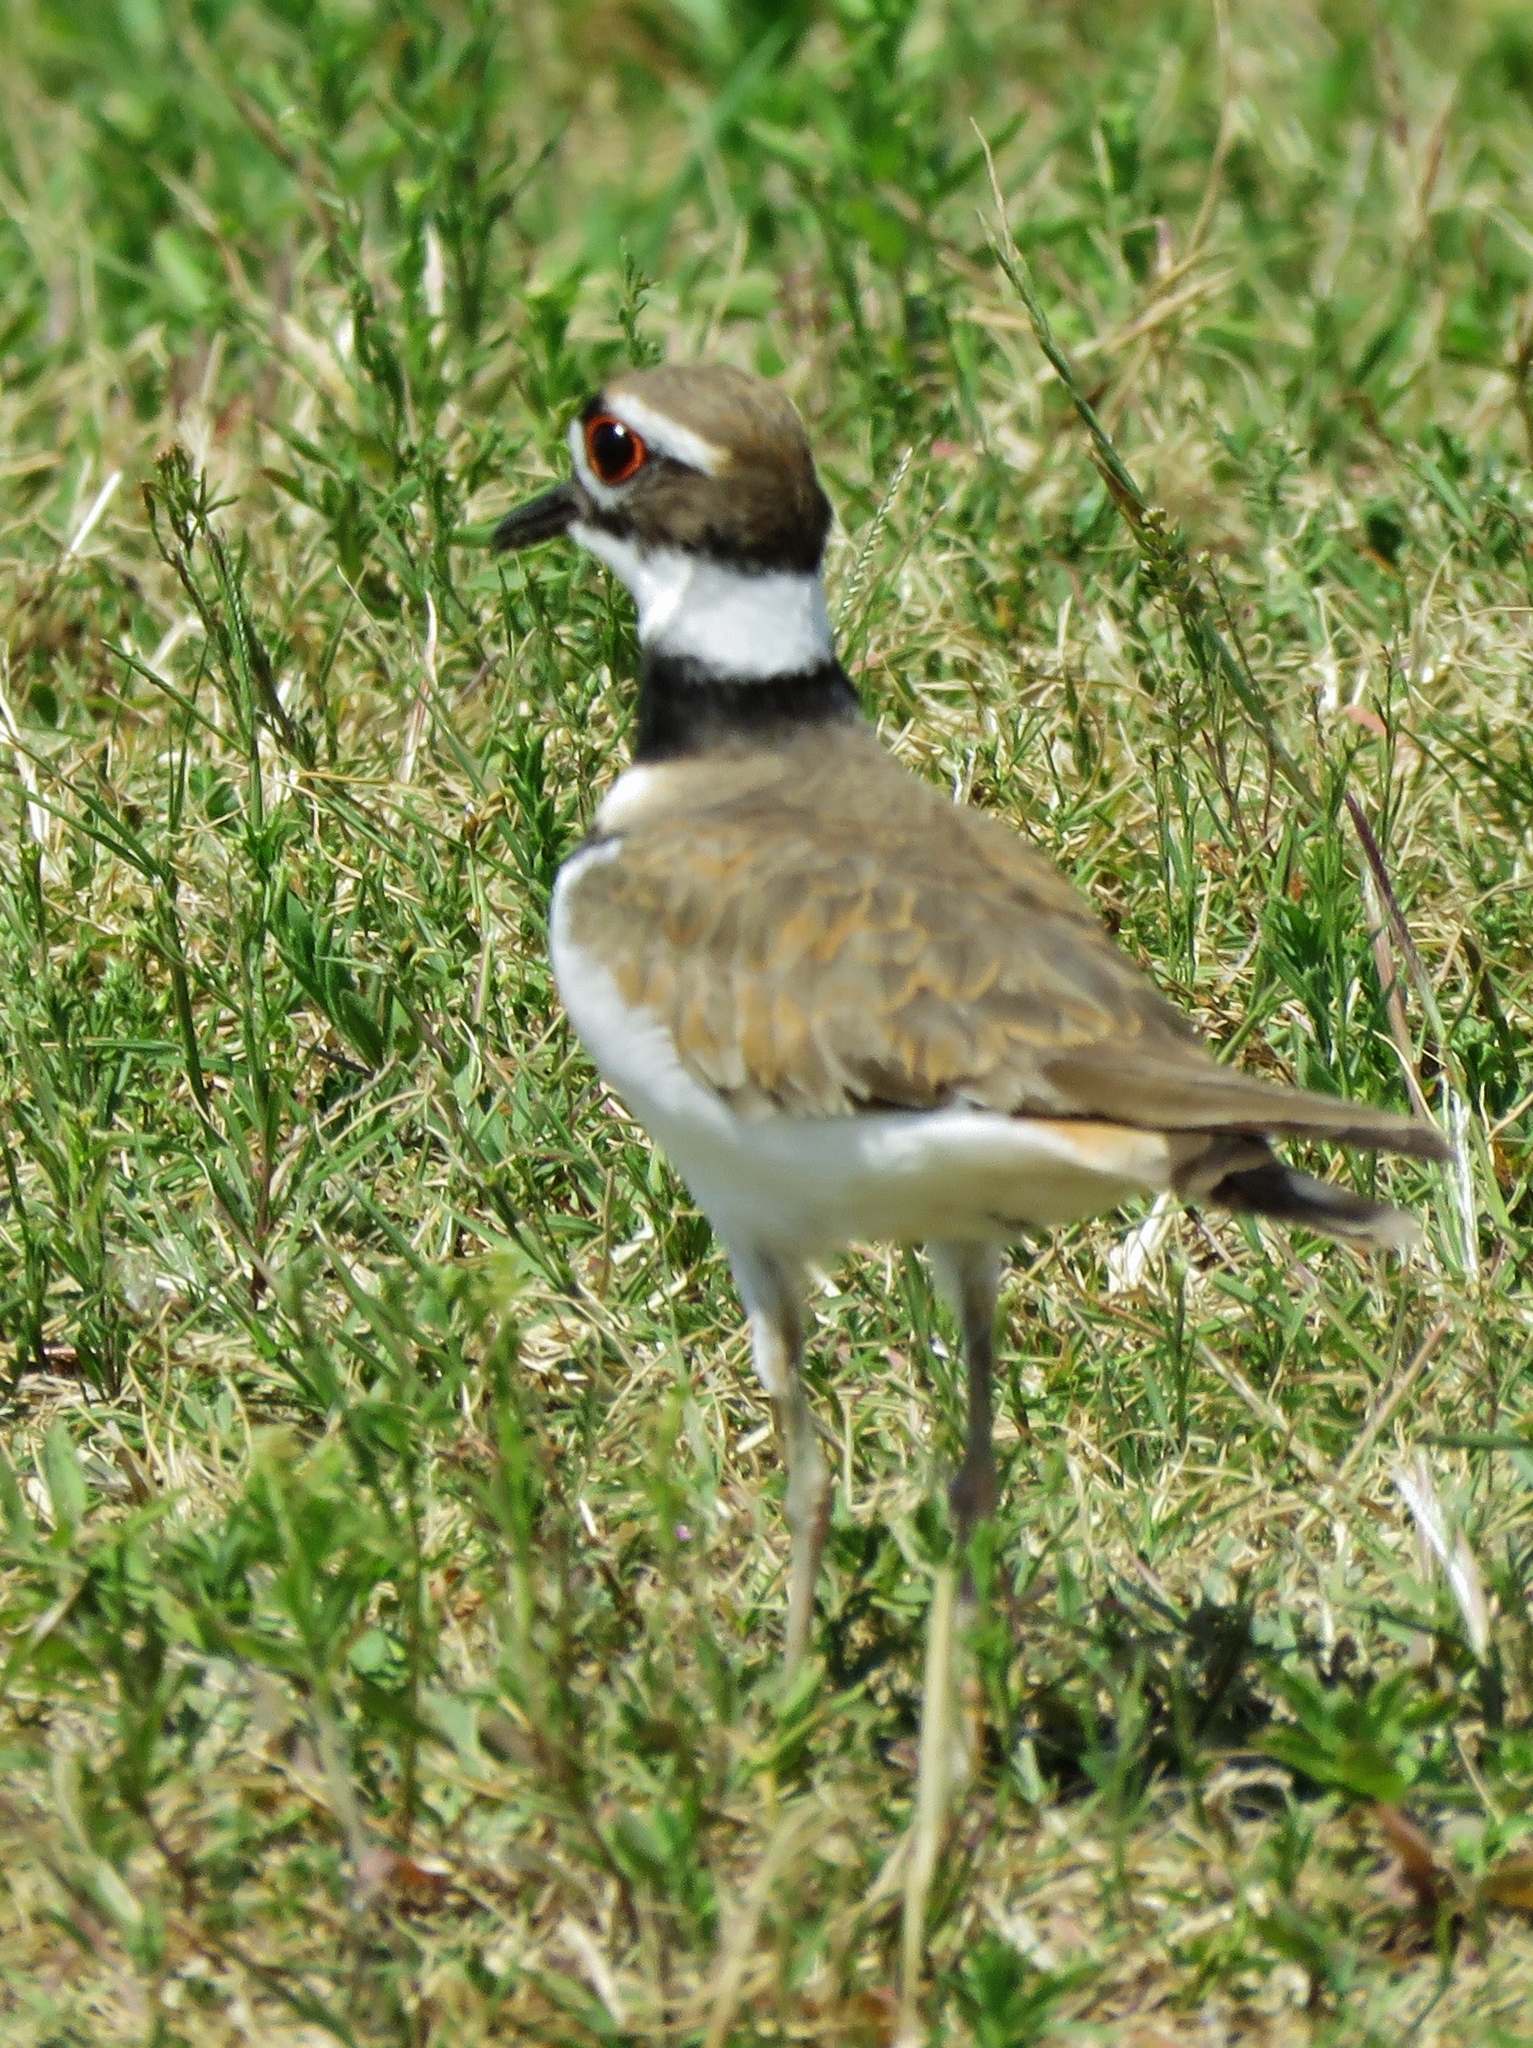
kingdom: Animalia
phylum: Chordata
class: Aves
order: Charadriiformes
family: Charadriidae
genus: Charadrius
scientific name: Charadrius vociferus
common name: Killdeer
